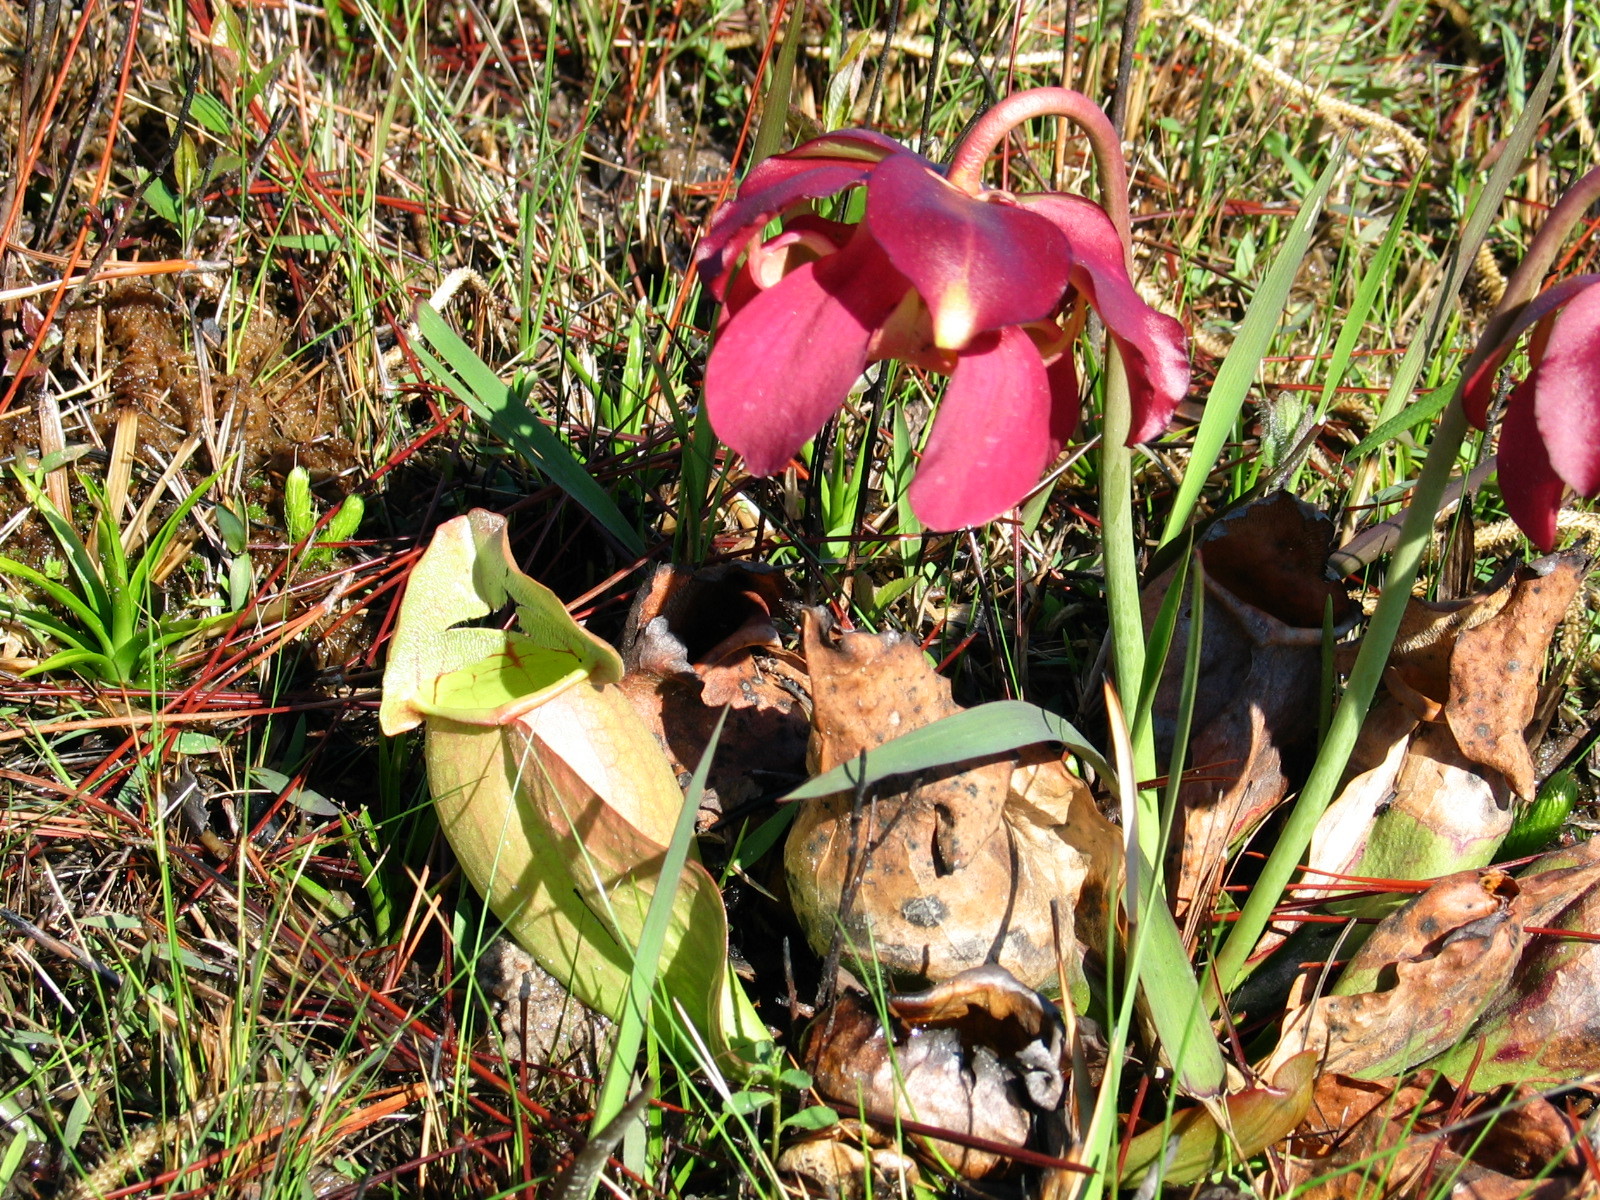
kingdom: Plantae
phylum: Tracheophyta
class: Magnoliopsida
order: Ericales
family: Sarraceniaceae
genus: Sarracenia
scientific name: Sarracenia rosea
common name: Pink pitcherplant
